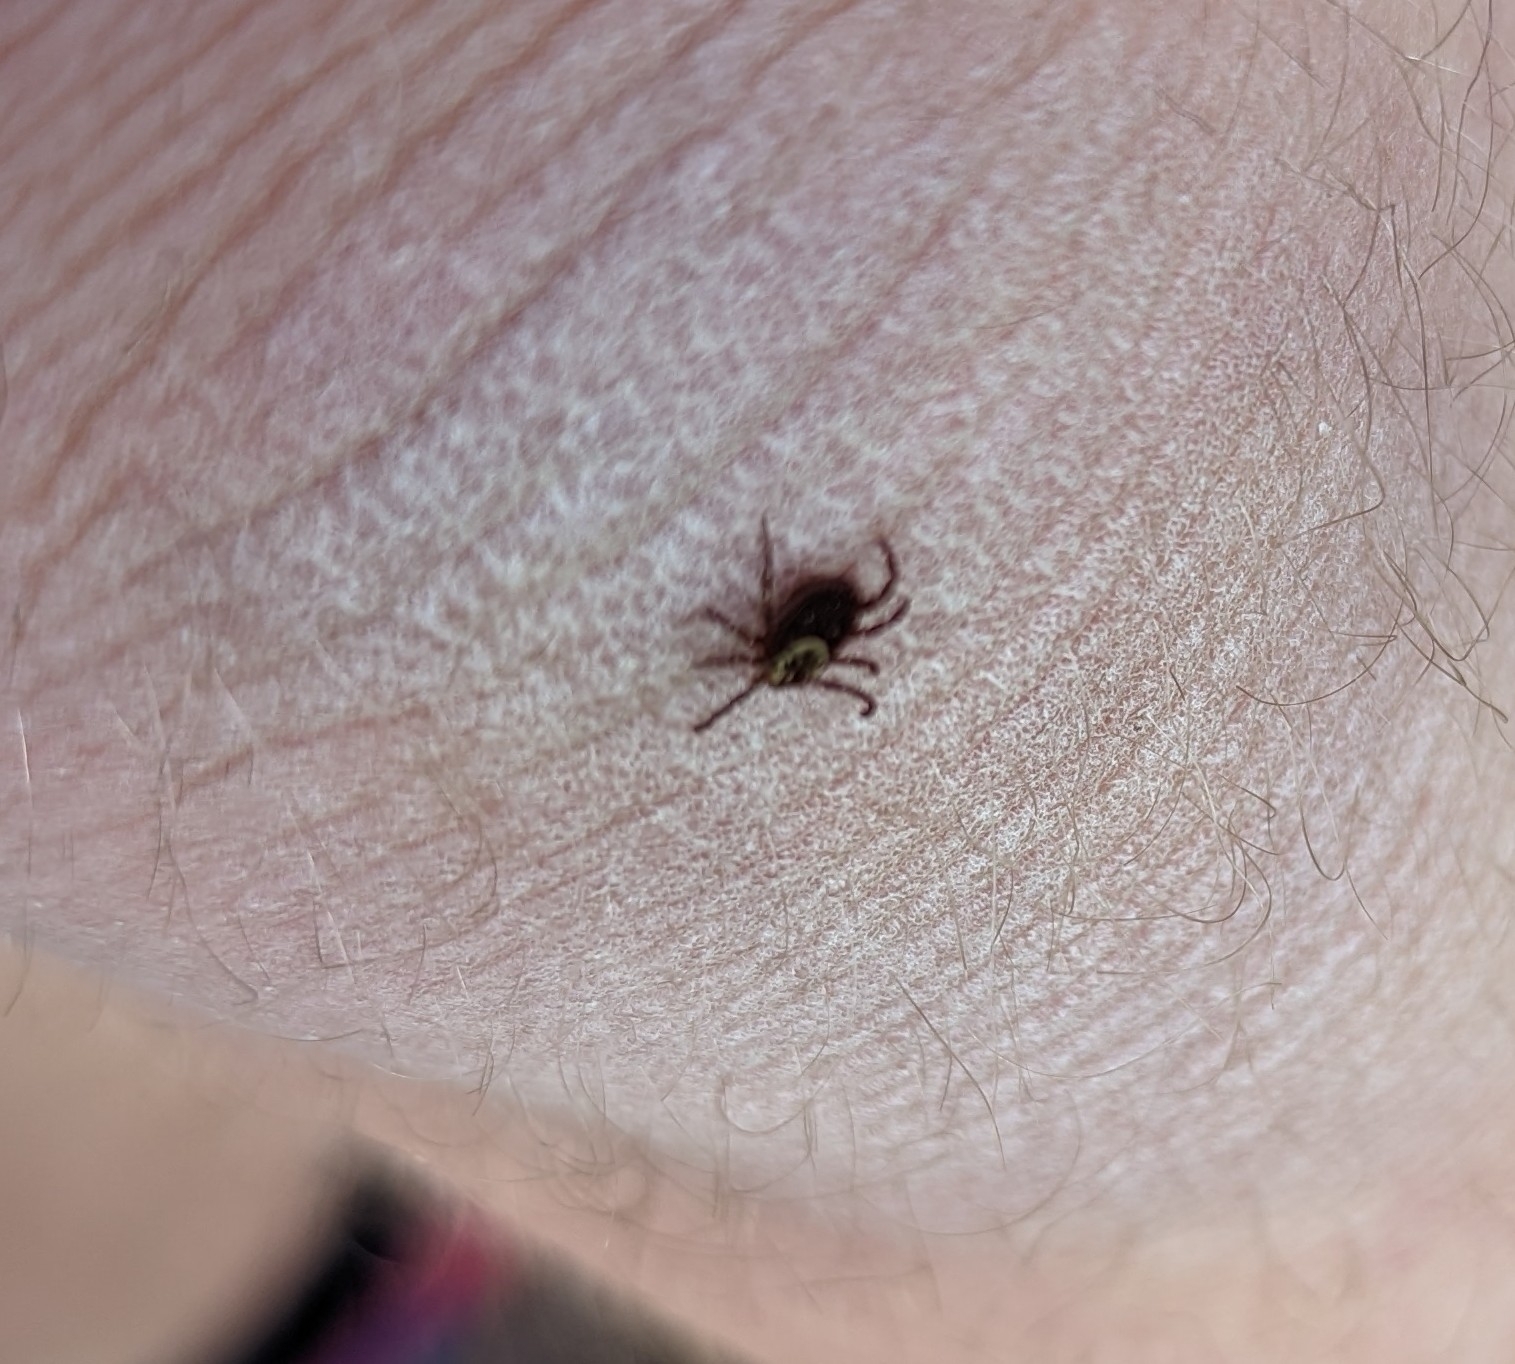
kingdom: Animalia
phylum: Arthropoda
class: Arachnida
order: Ixodida
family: Ixodidae
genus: Dermacentor
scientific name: Dermacentor variabilis
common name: American dog tick
